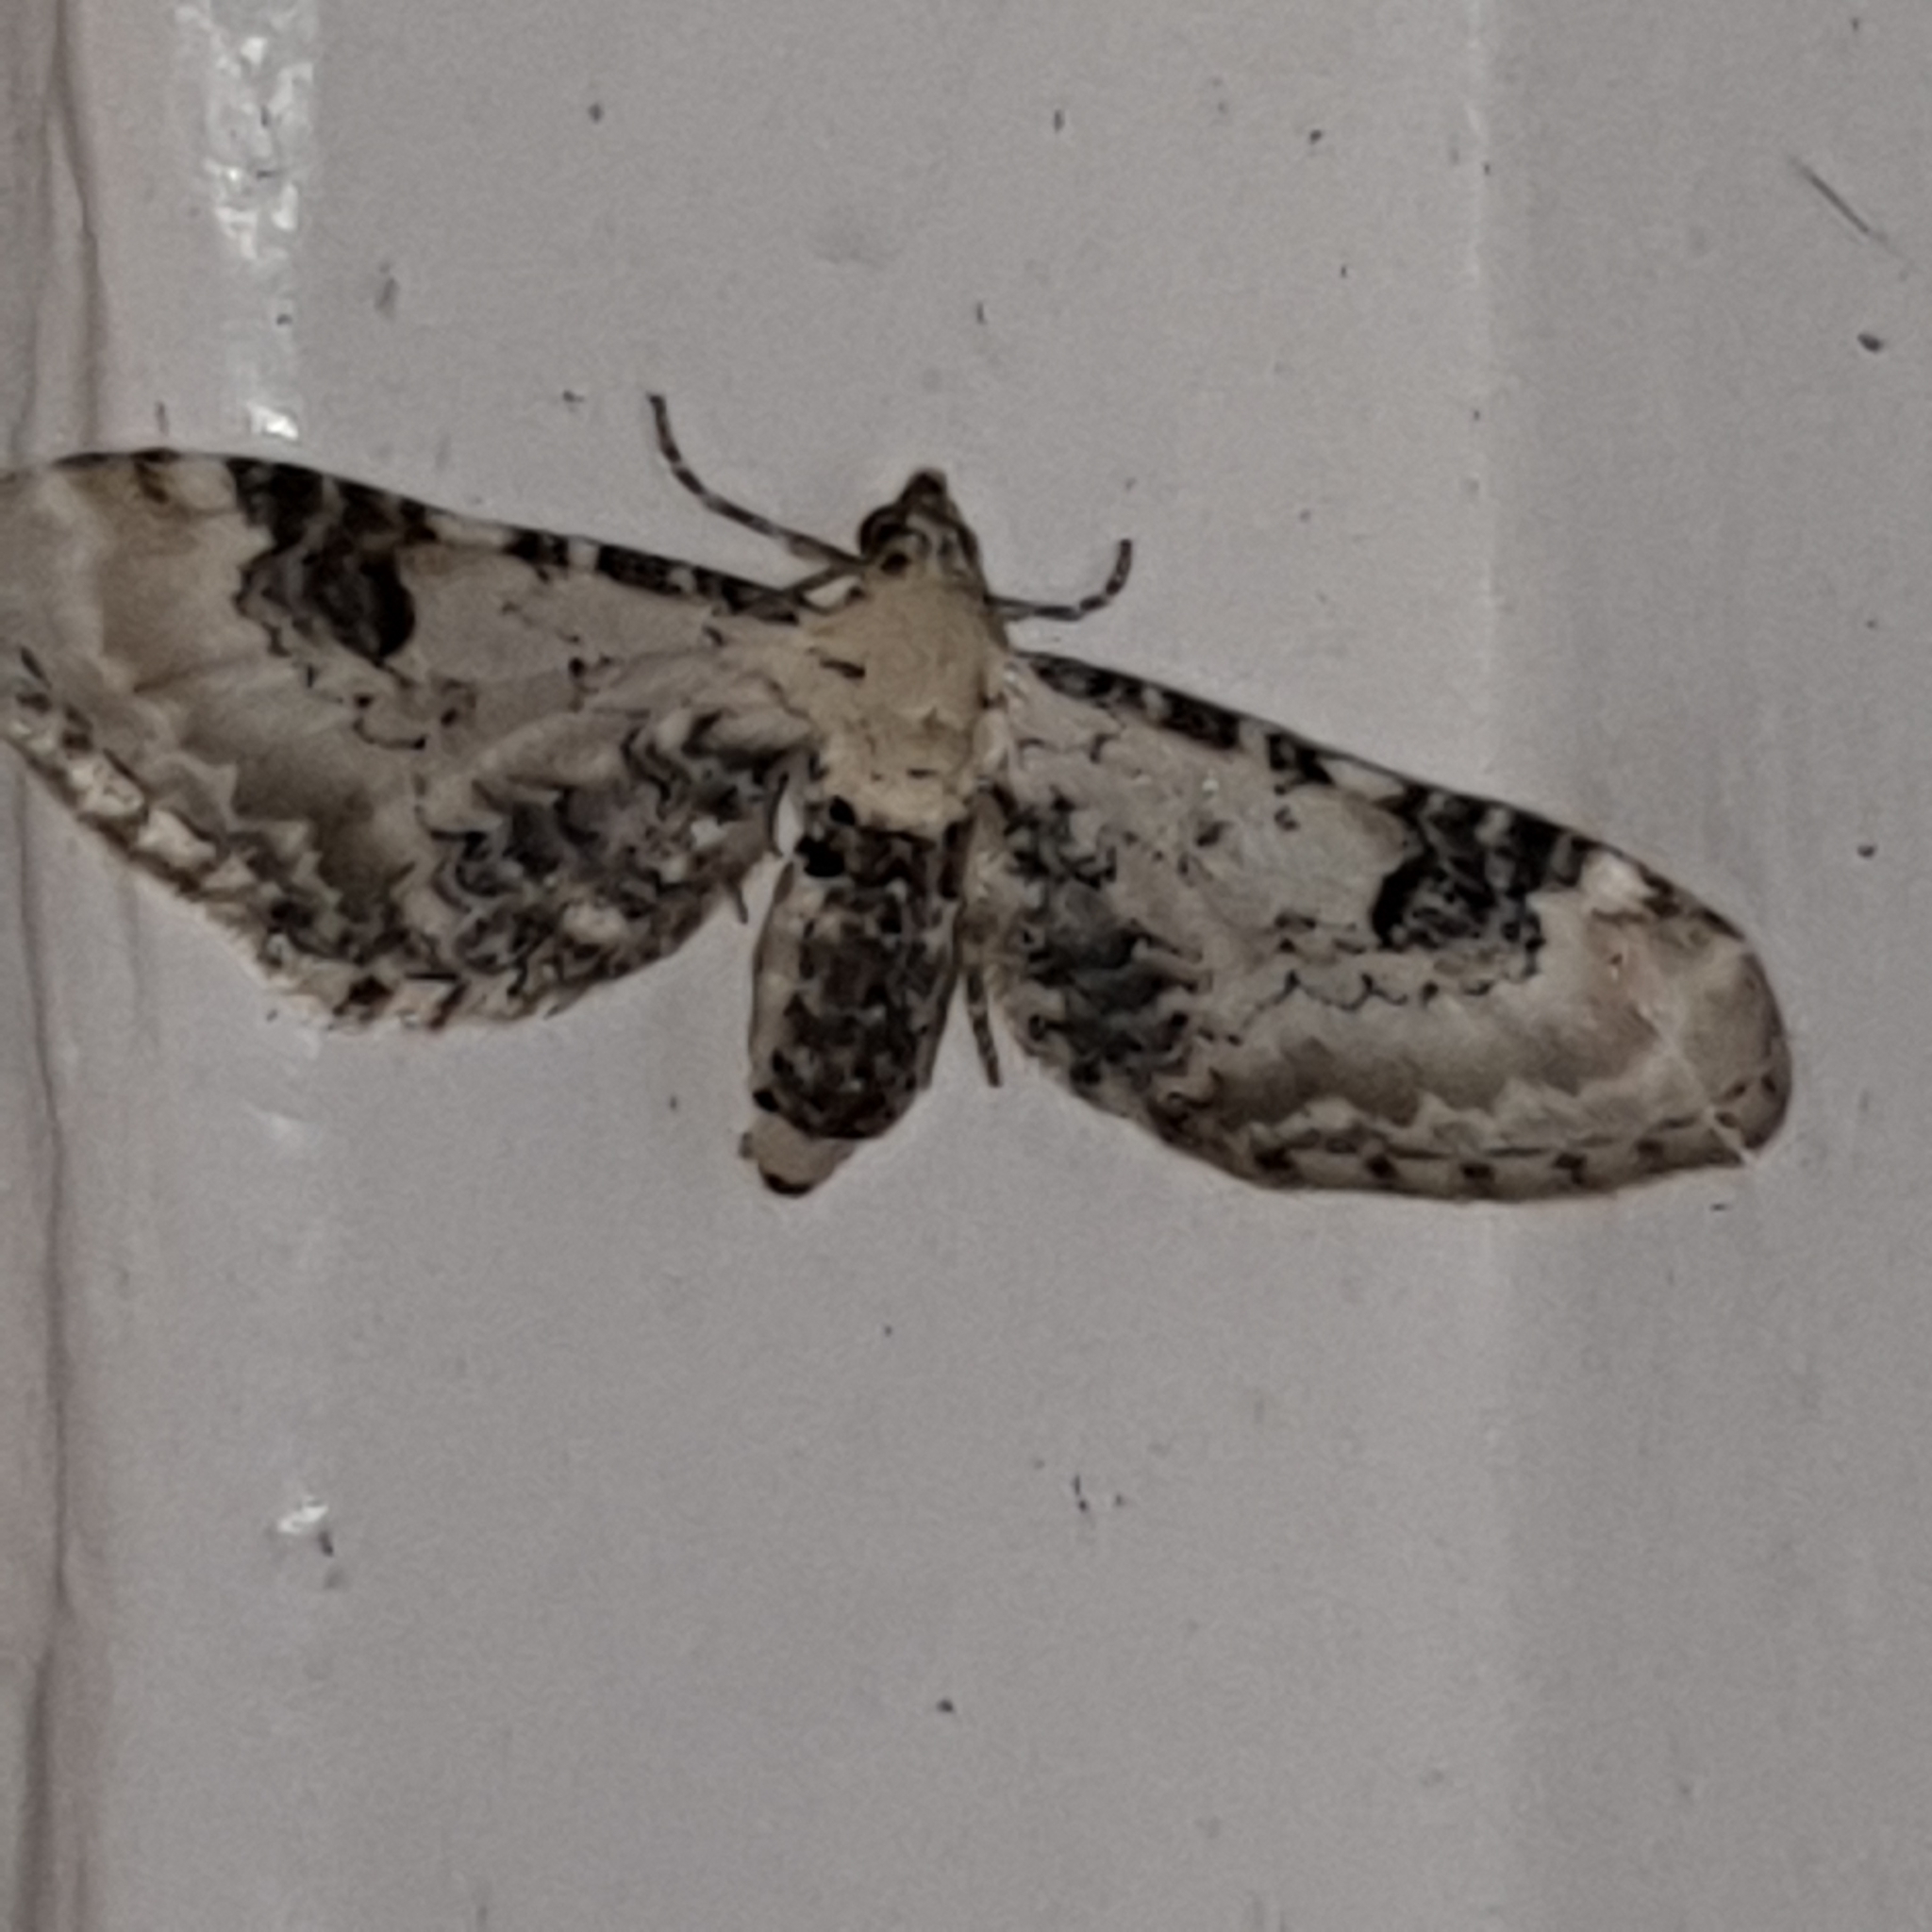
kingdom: Animalia
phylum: Arthropoda
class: Insecta
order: Lepidoptera
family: Geometridae
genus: Eupithecia
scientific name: Eupithecia centaureata
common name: Lime-speck pug
